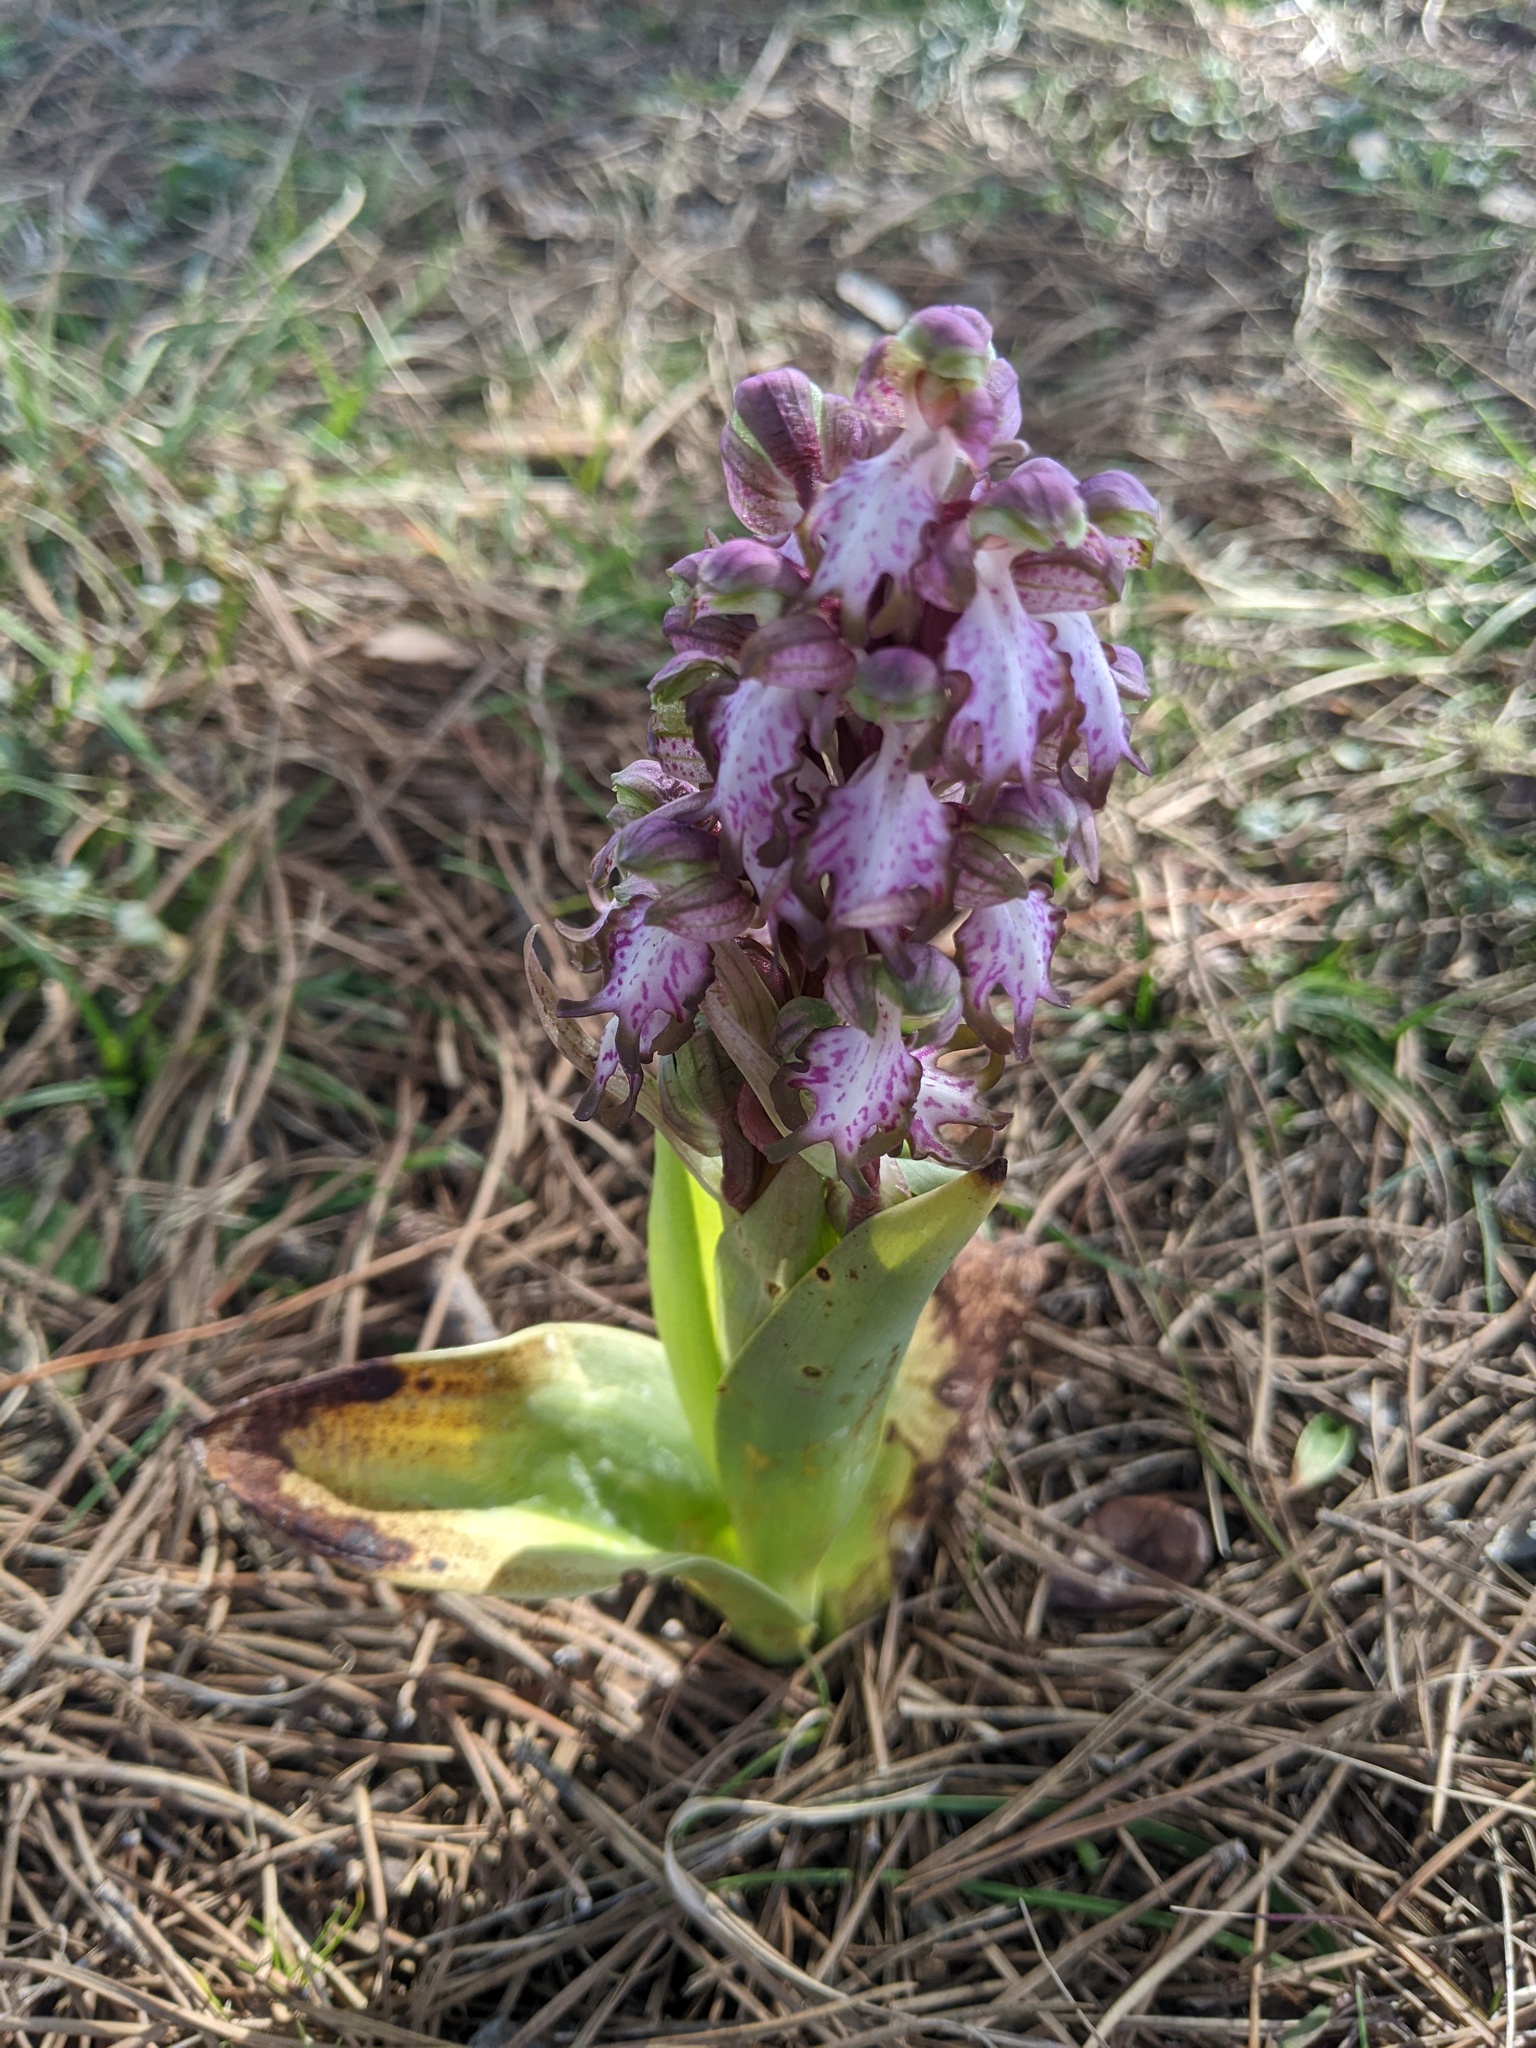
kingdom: Plantae
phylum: Tracheophyta
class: Liliopsida
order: Asparagales
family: Orchidaceae
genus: Himantoglossum
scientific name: Himantoglossum robertianum
